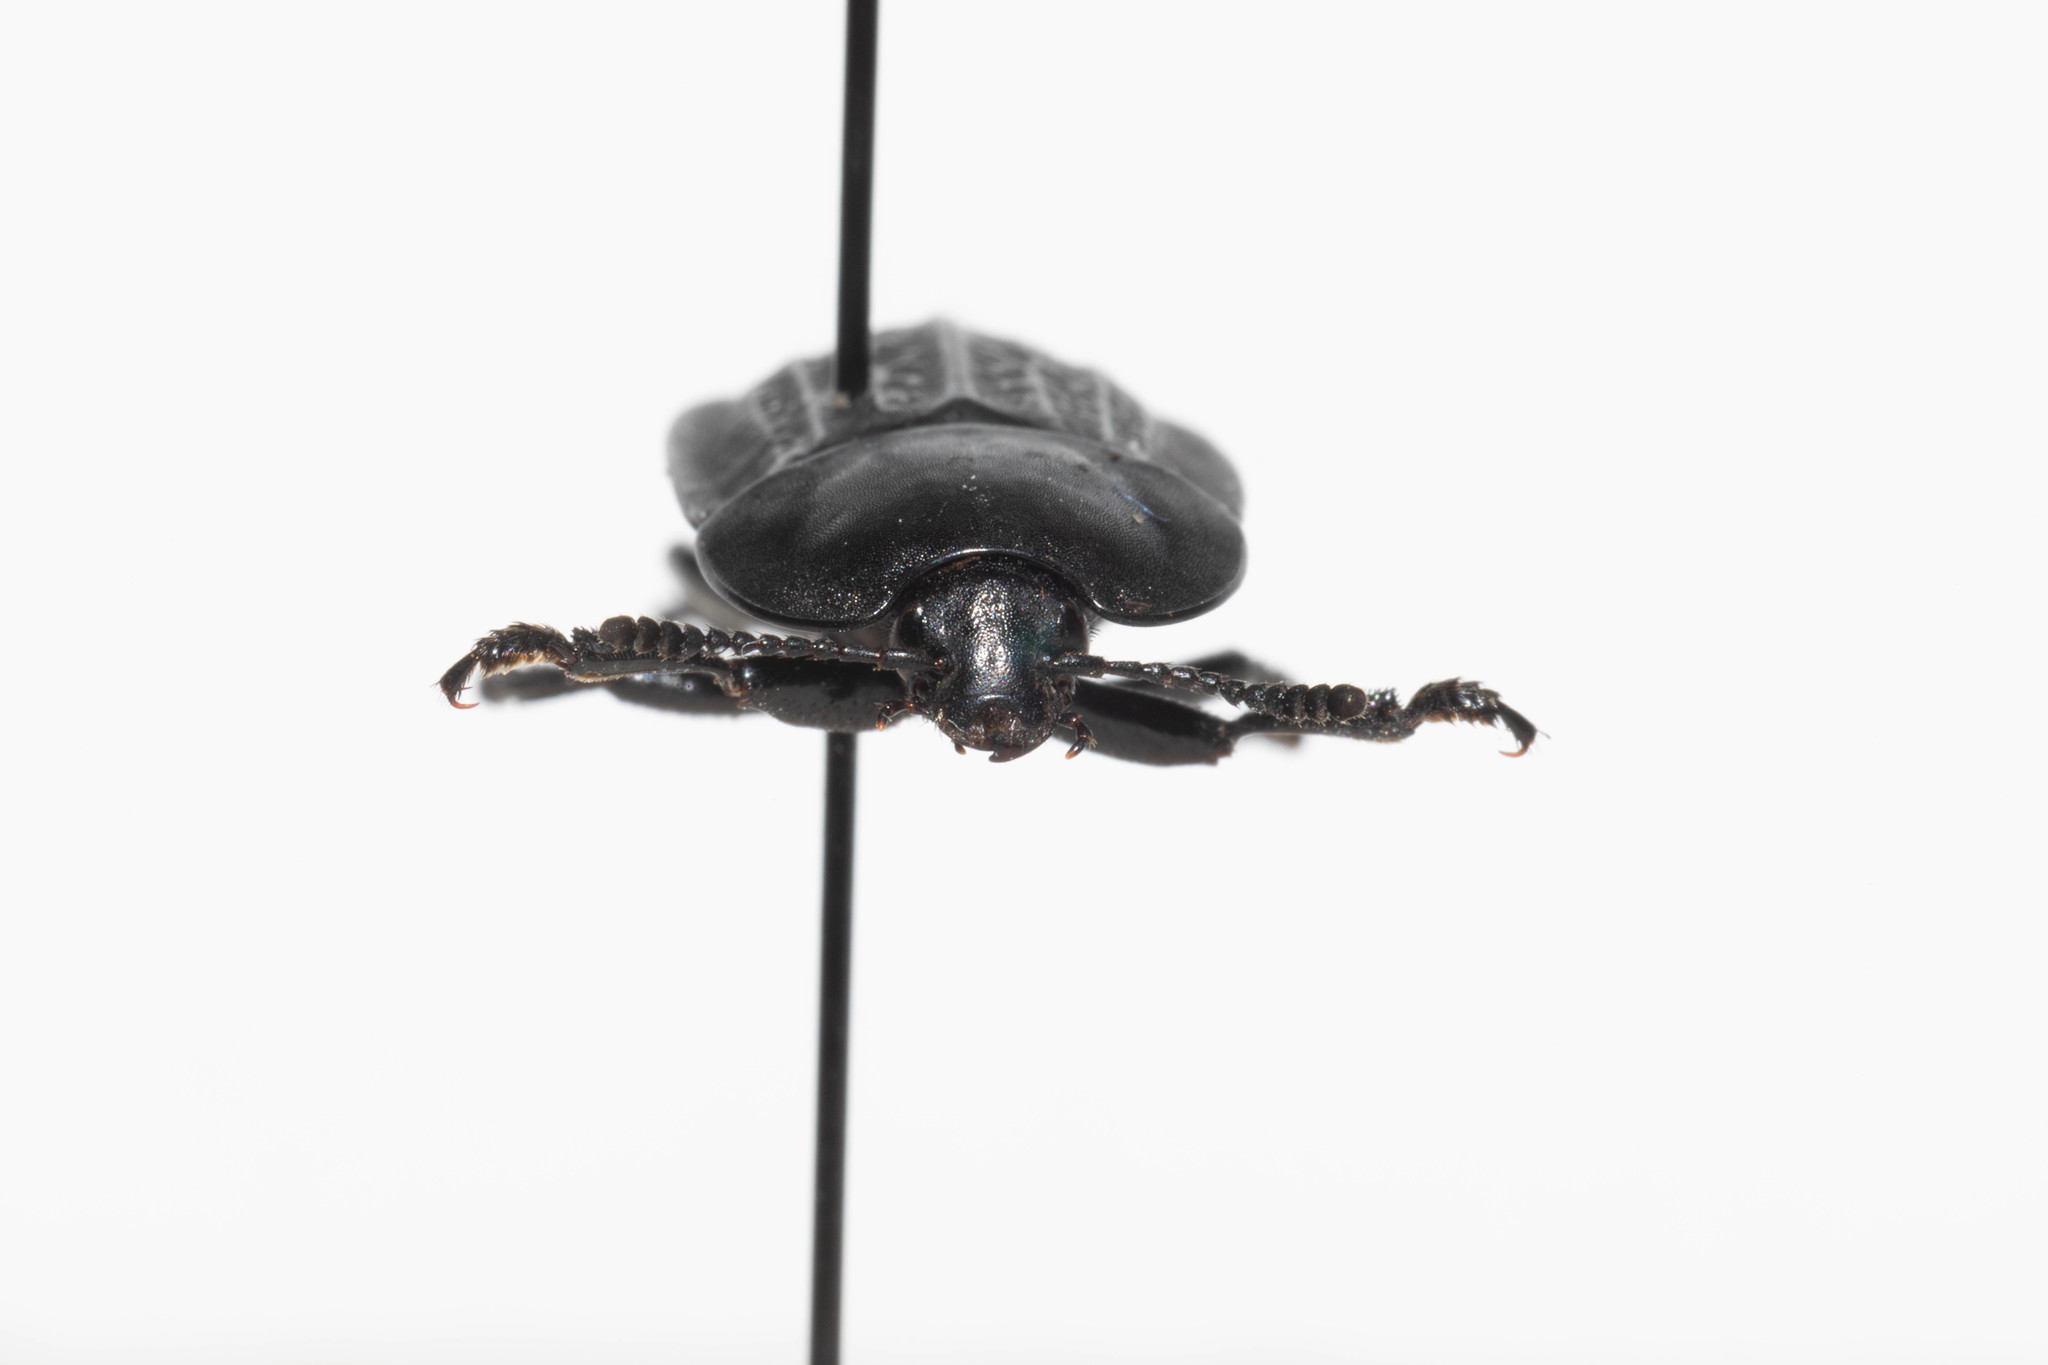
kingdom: Animalia
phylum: Arthropoda
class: Insecta
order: Coleoptera
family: Staphylinidae
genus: Heterosilpha
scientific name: Heterosilpha ramosa
